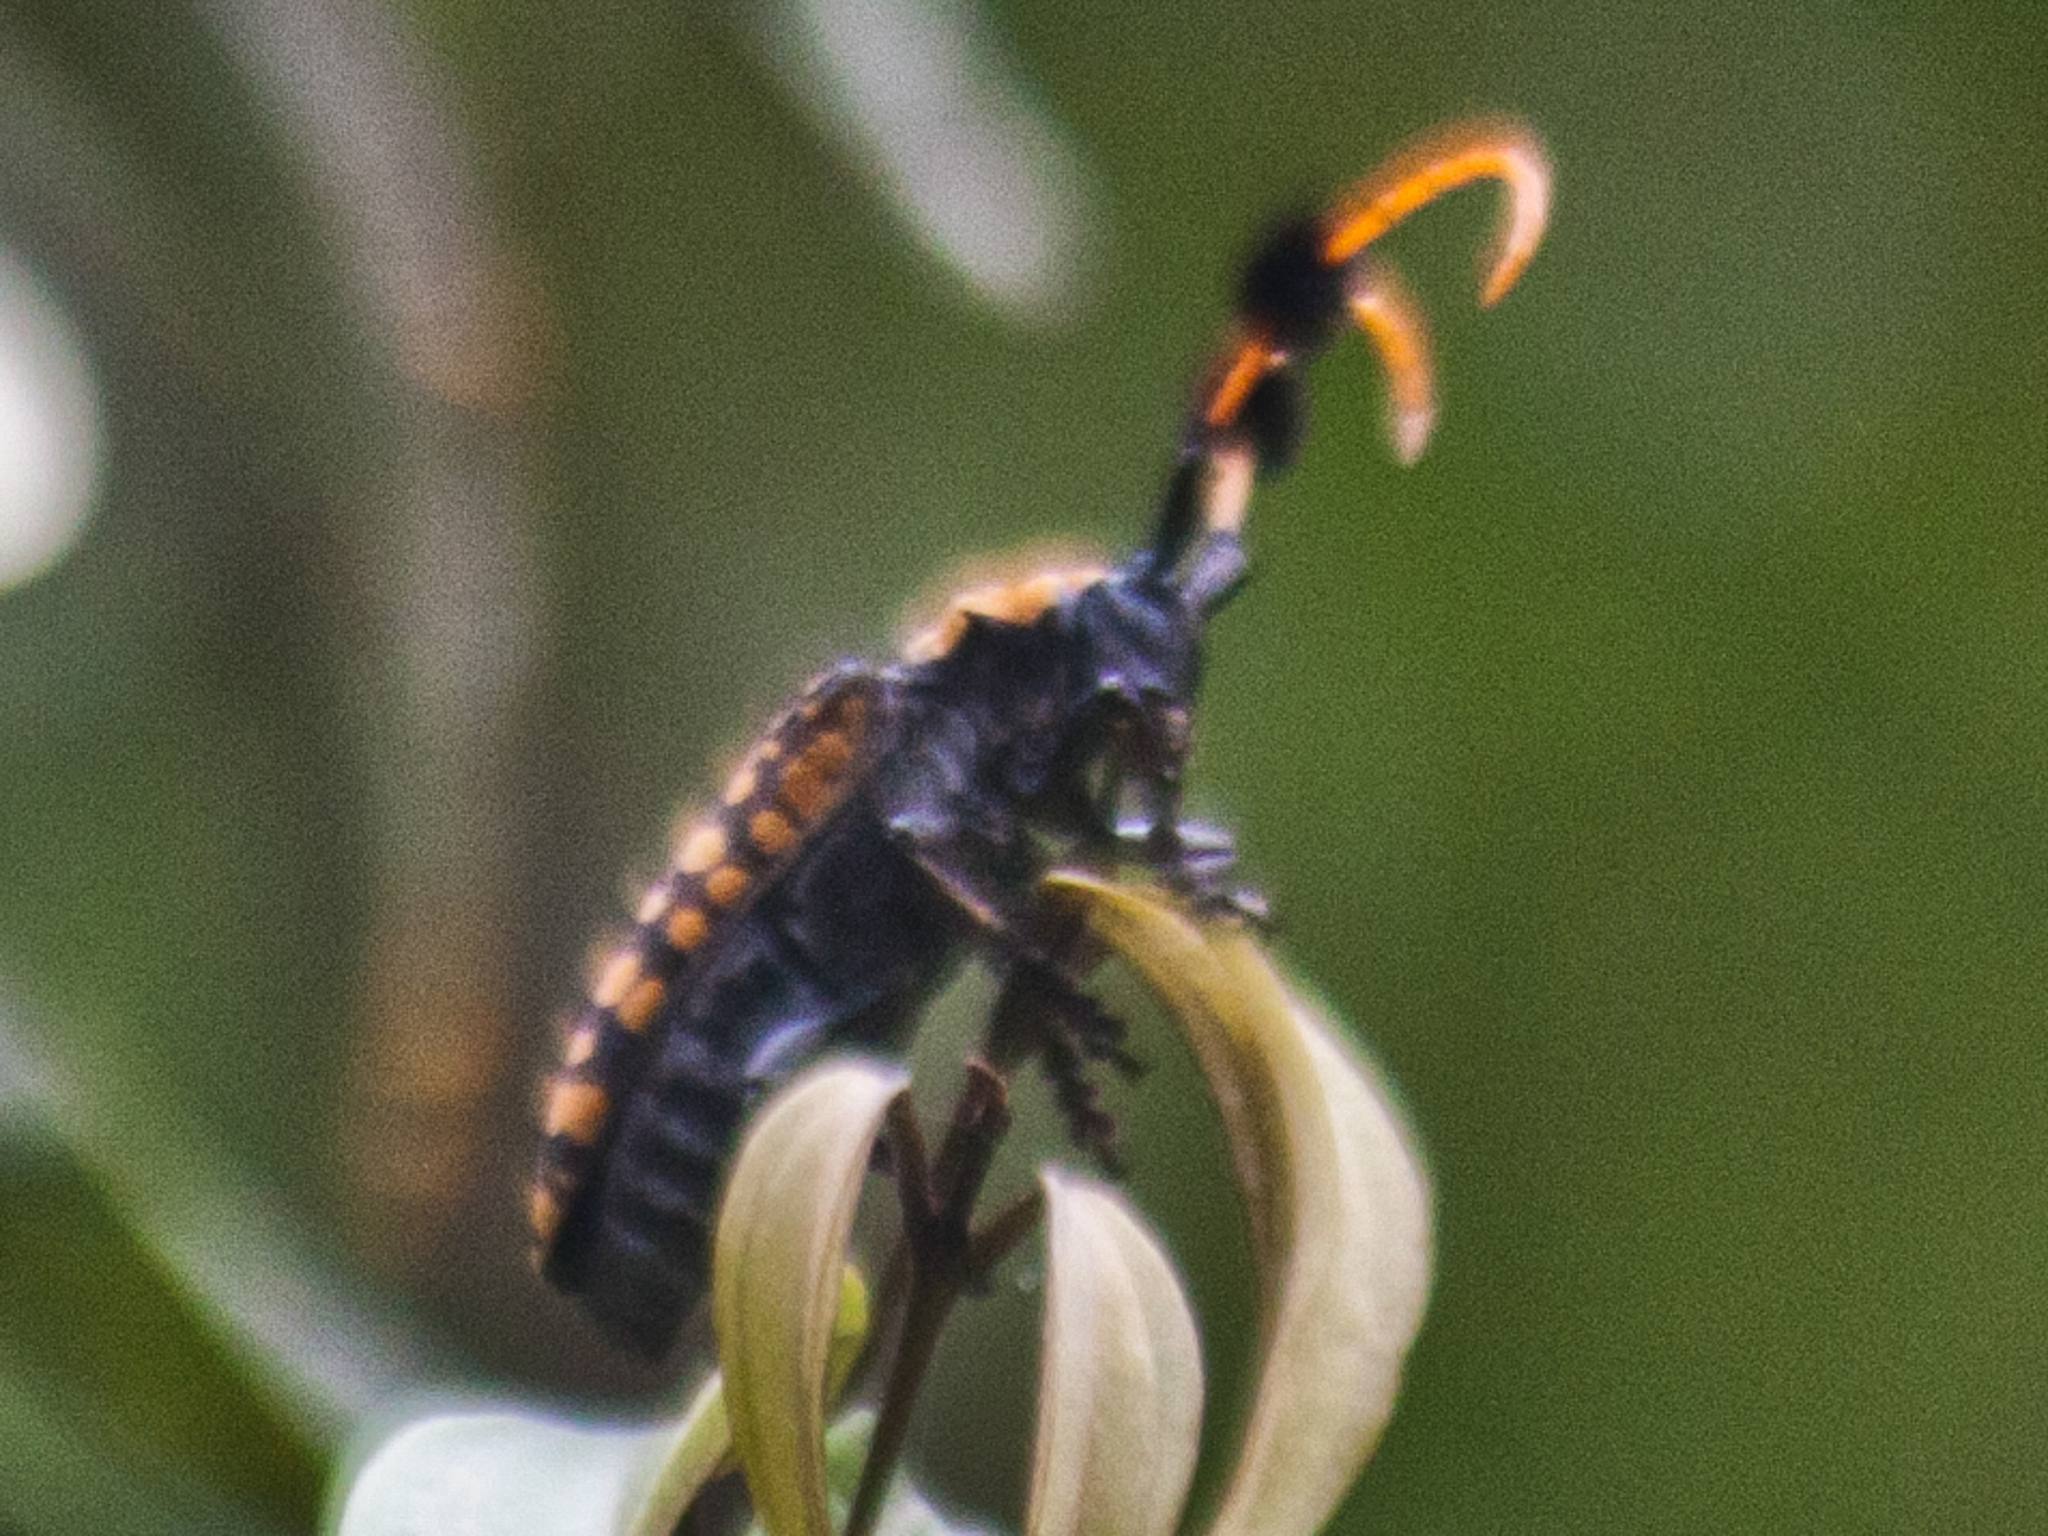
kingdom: Animalia
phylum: Arthropoda
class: Insecta
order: Coleoptera
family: Cerambycidae
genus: Aristobia
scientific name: Aristobia approximator
